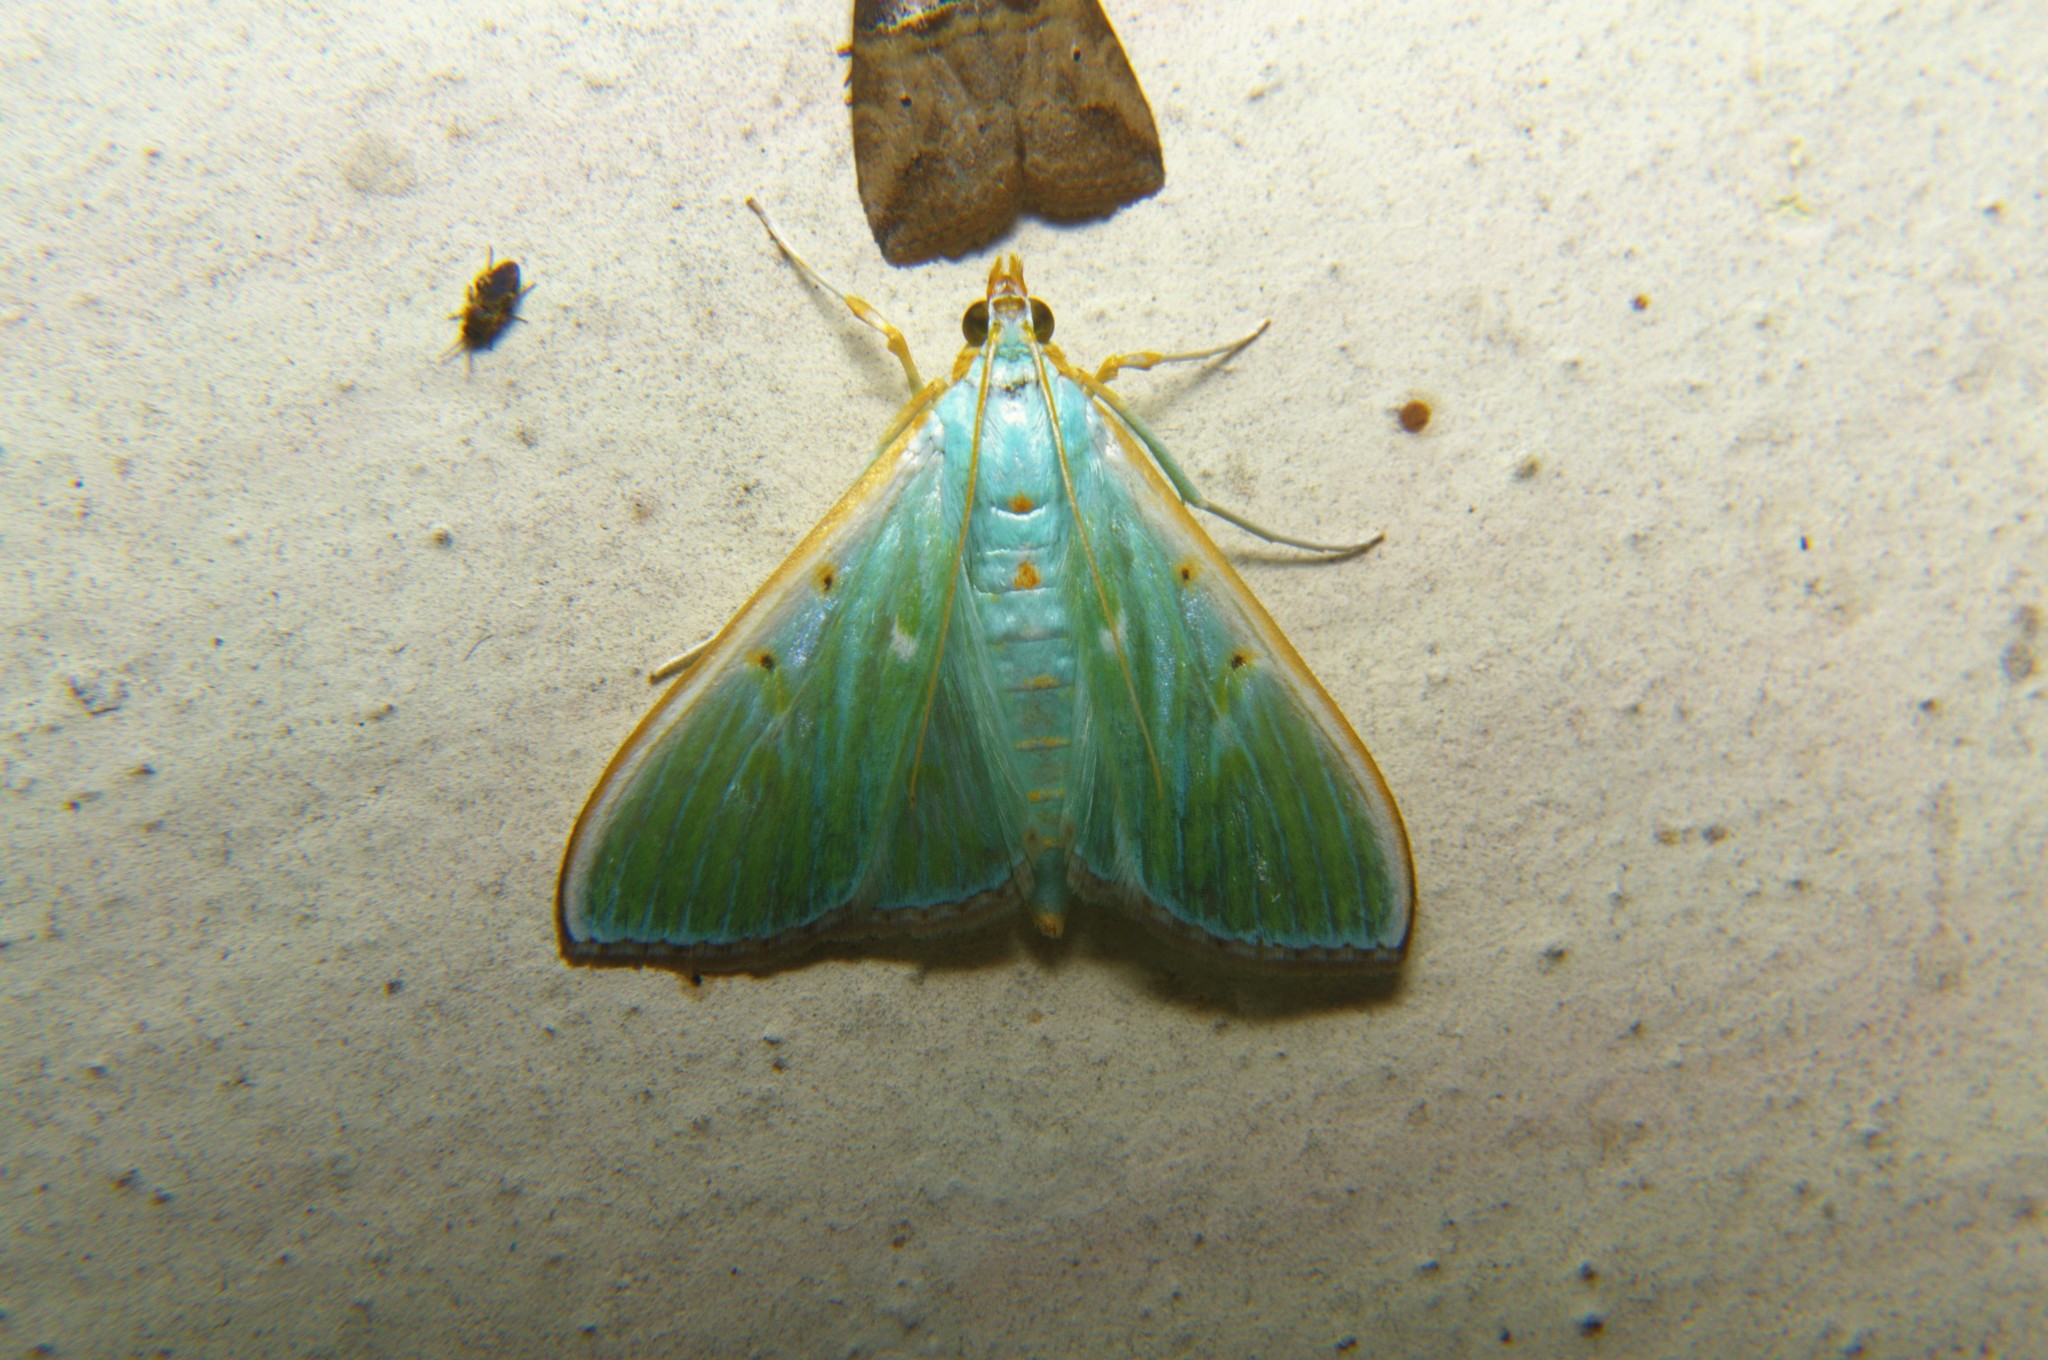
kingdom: Animalia
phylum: Arthropoda
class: Insecta
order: Lepidoptera
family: Crambidae
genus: Arthroschista
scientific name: Arthroschista hilaralis
